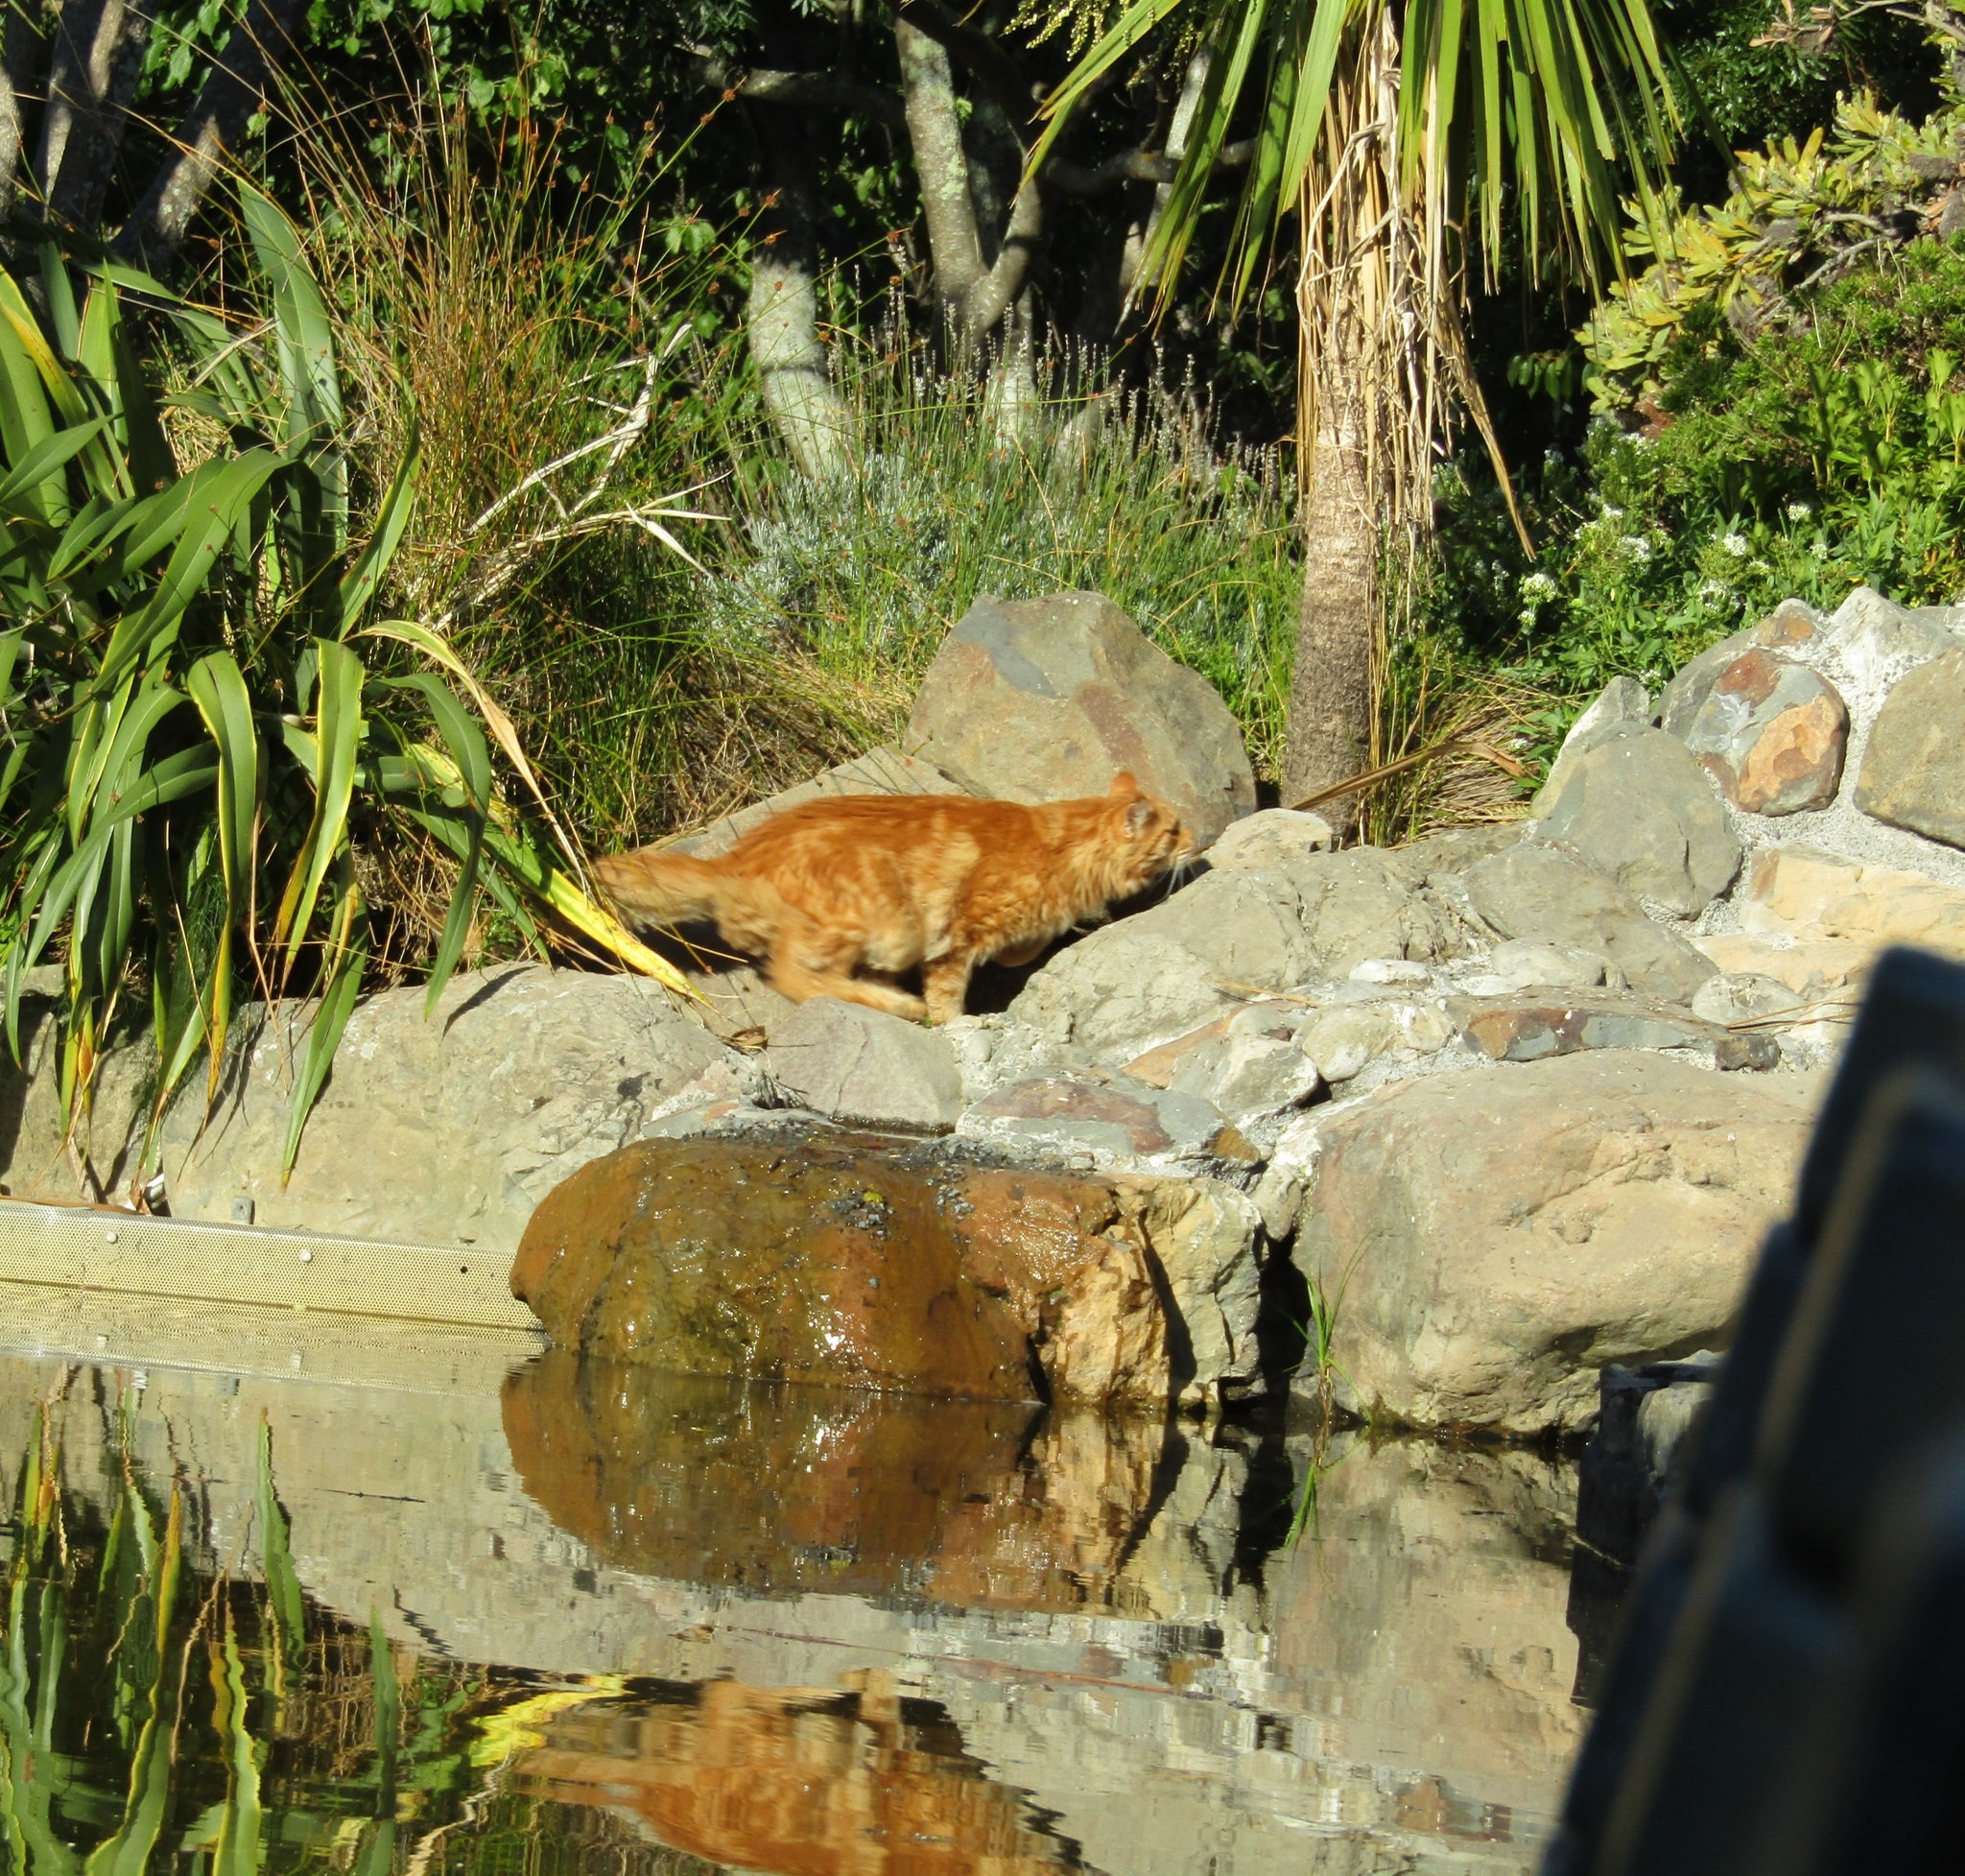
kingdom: Animalia
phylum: Chordata
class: Aves
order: Passeriformes
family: Passeridae
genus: Passer
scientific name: Passer domesticus
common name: House sparrow
